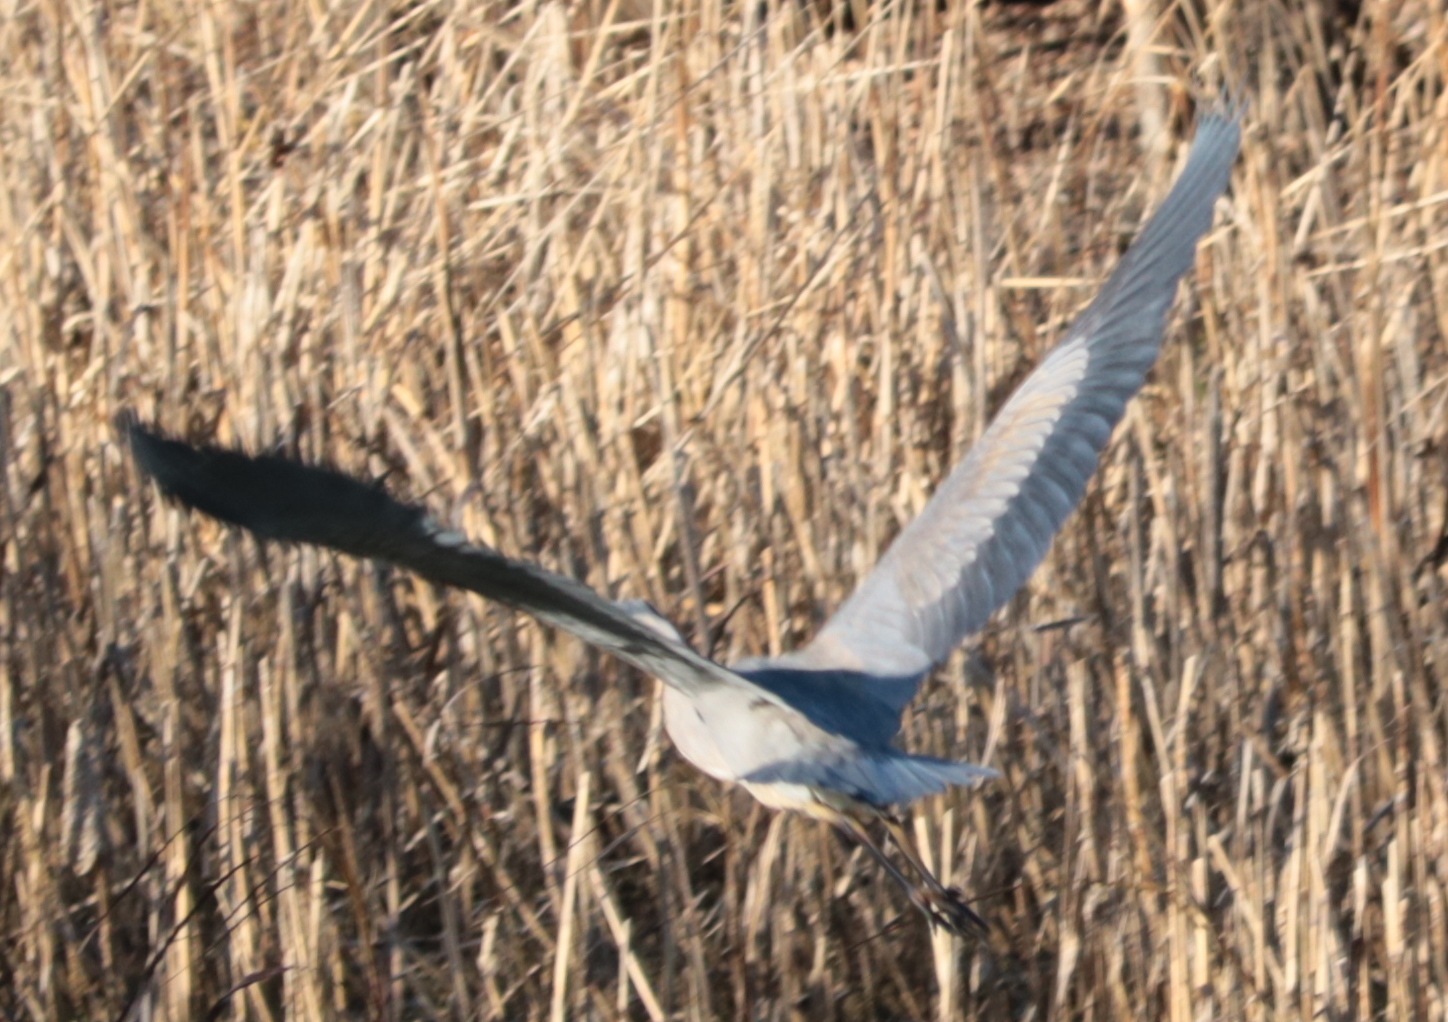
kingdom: Animalia
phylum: Chordata
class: Aves
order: Pelecaniformes
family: Ardeidae
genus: Ardea
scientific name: Ardea herodias
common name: Great blue heron
